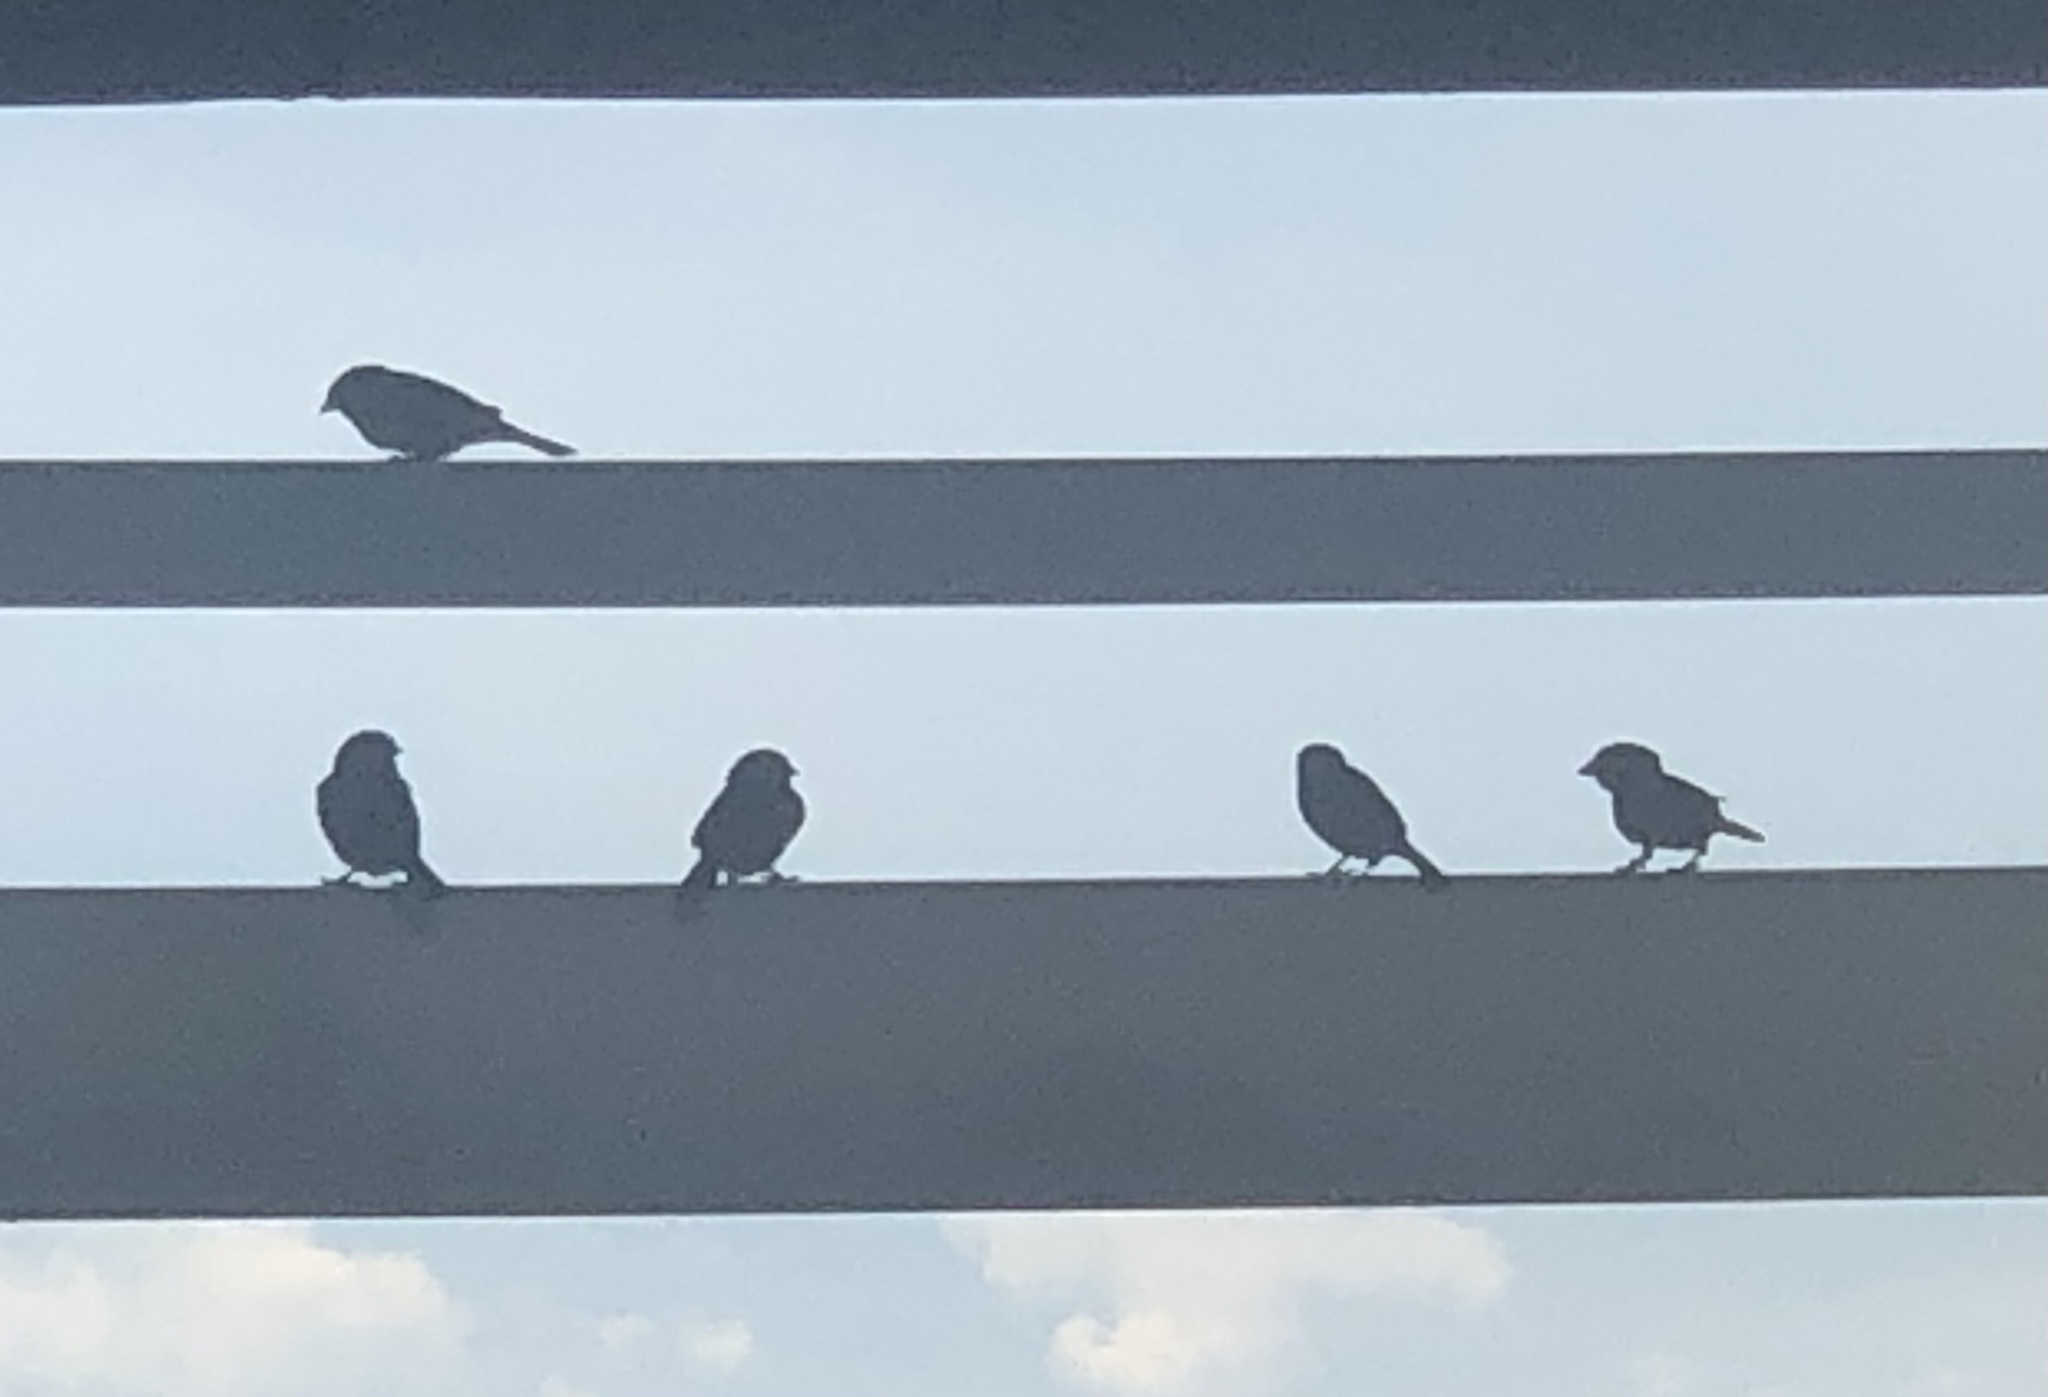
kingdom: Animalia
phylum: Chordata
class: Aves
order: Passeriformes
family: Passeridae
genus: Passer
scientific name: Passer montanus
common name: Eurasian tree sparrow
